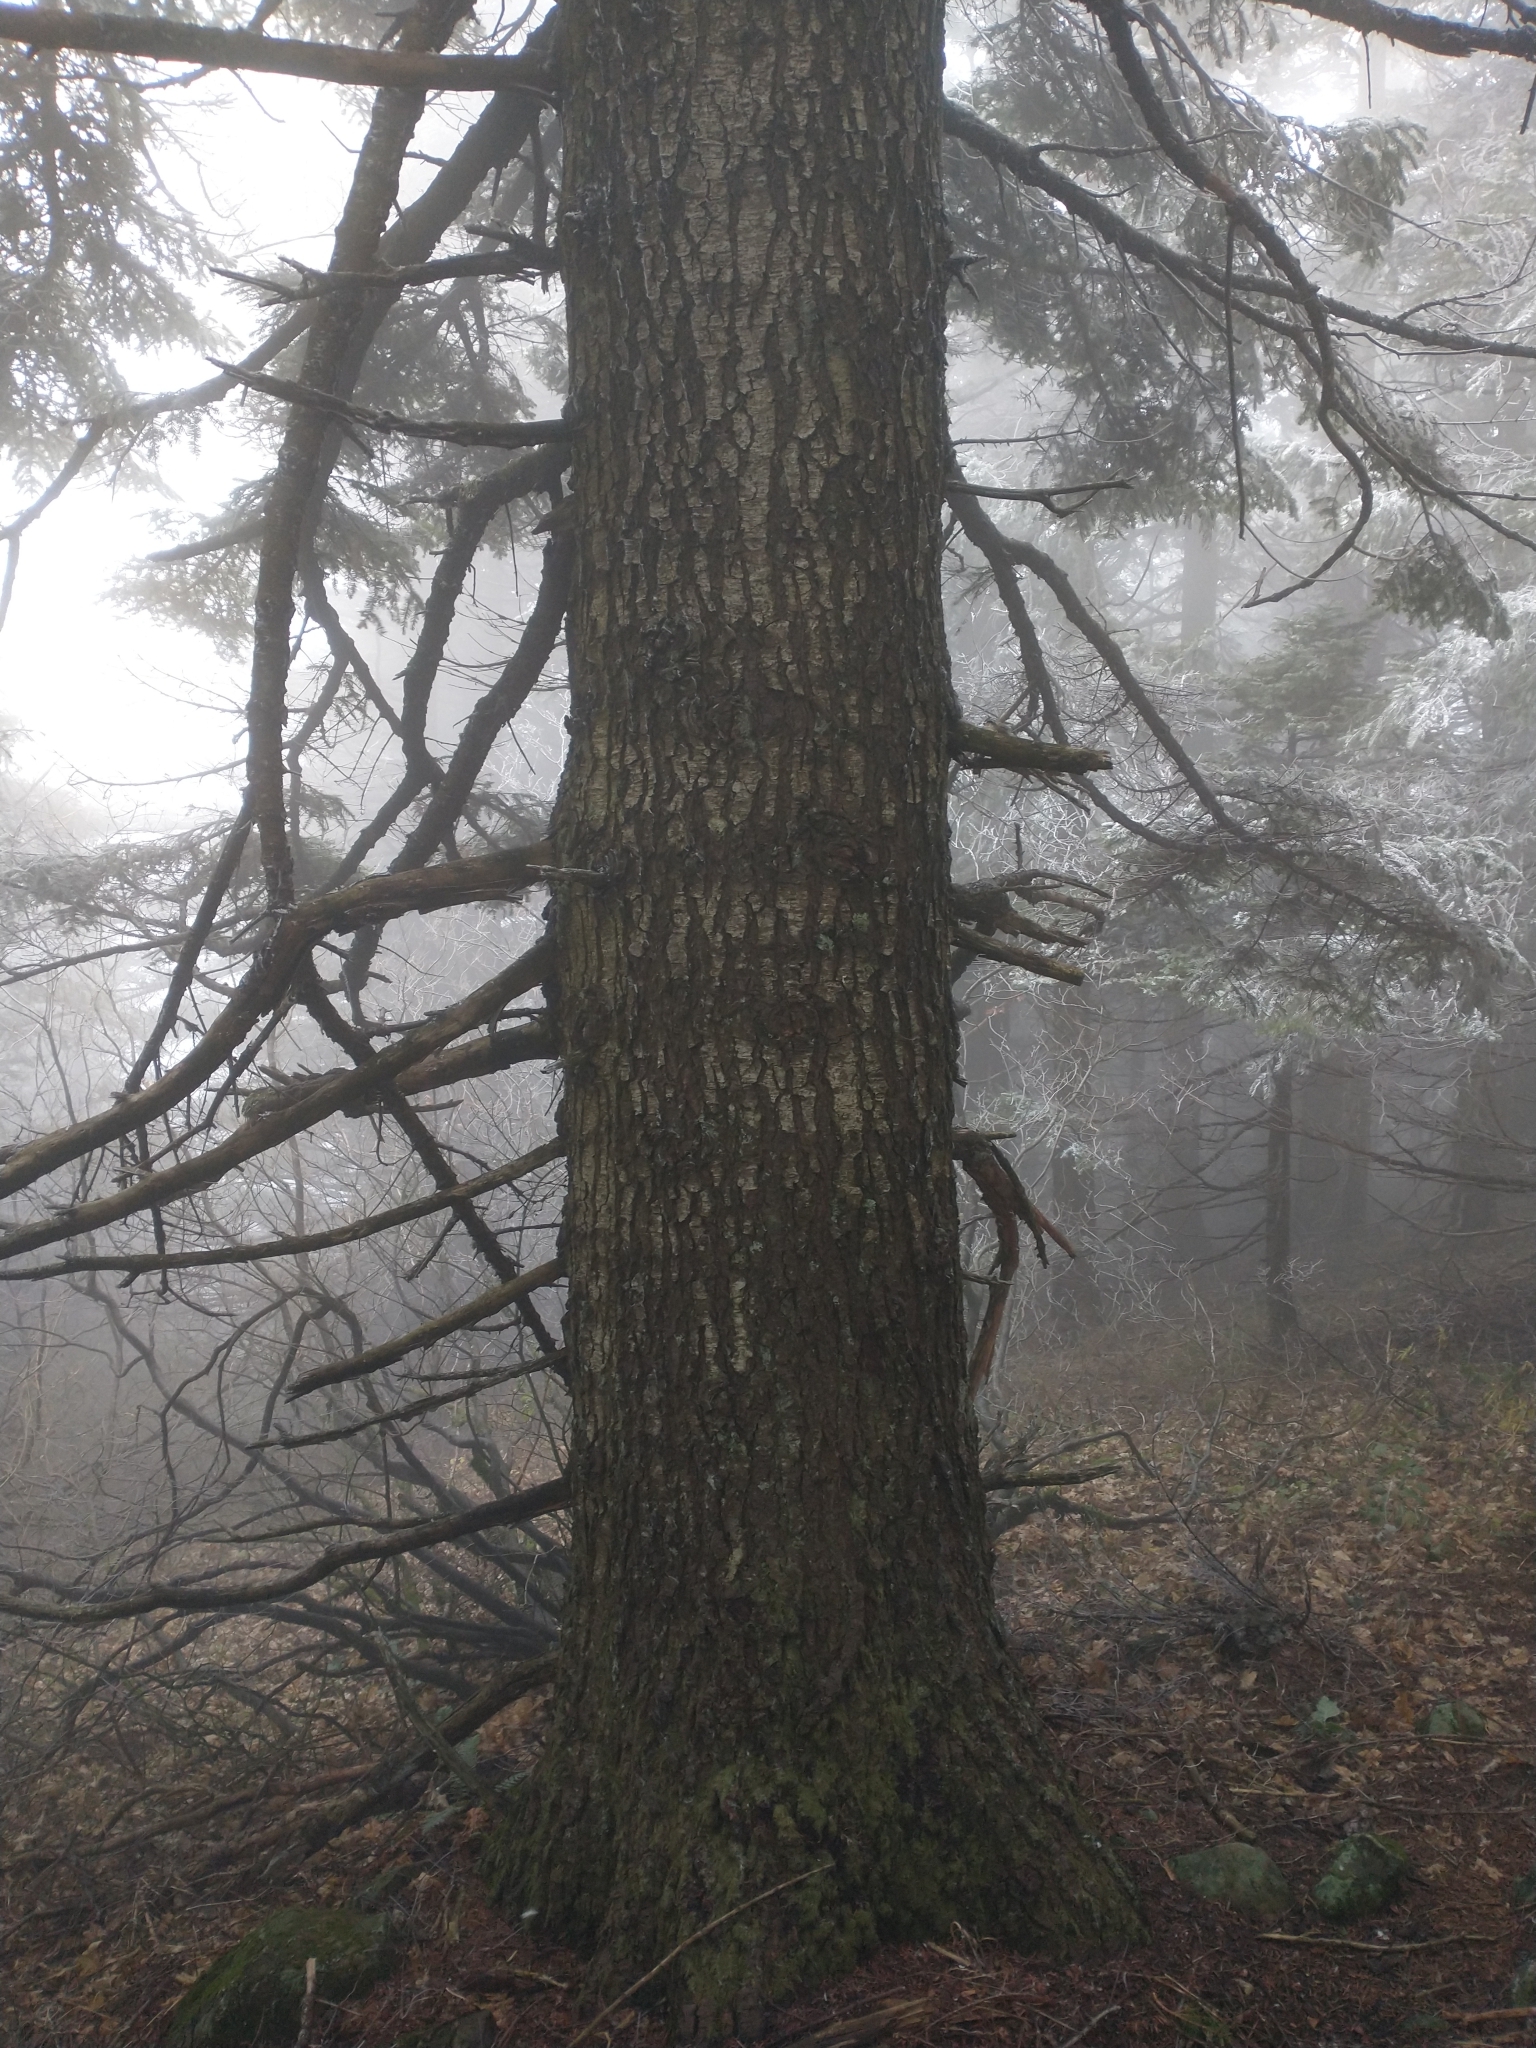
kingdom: Plantae
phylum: Tracheophyta
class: Pinopsida
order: Pinales
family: Pinaceae
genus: Abies
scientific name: Abies amabilis
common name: Pacific silver fir
